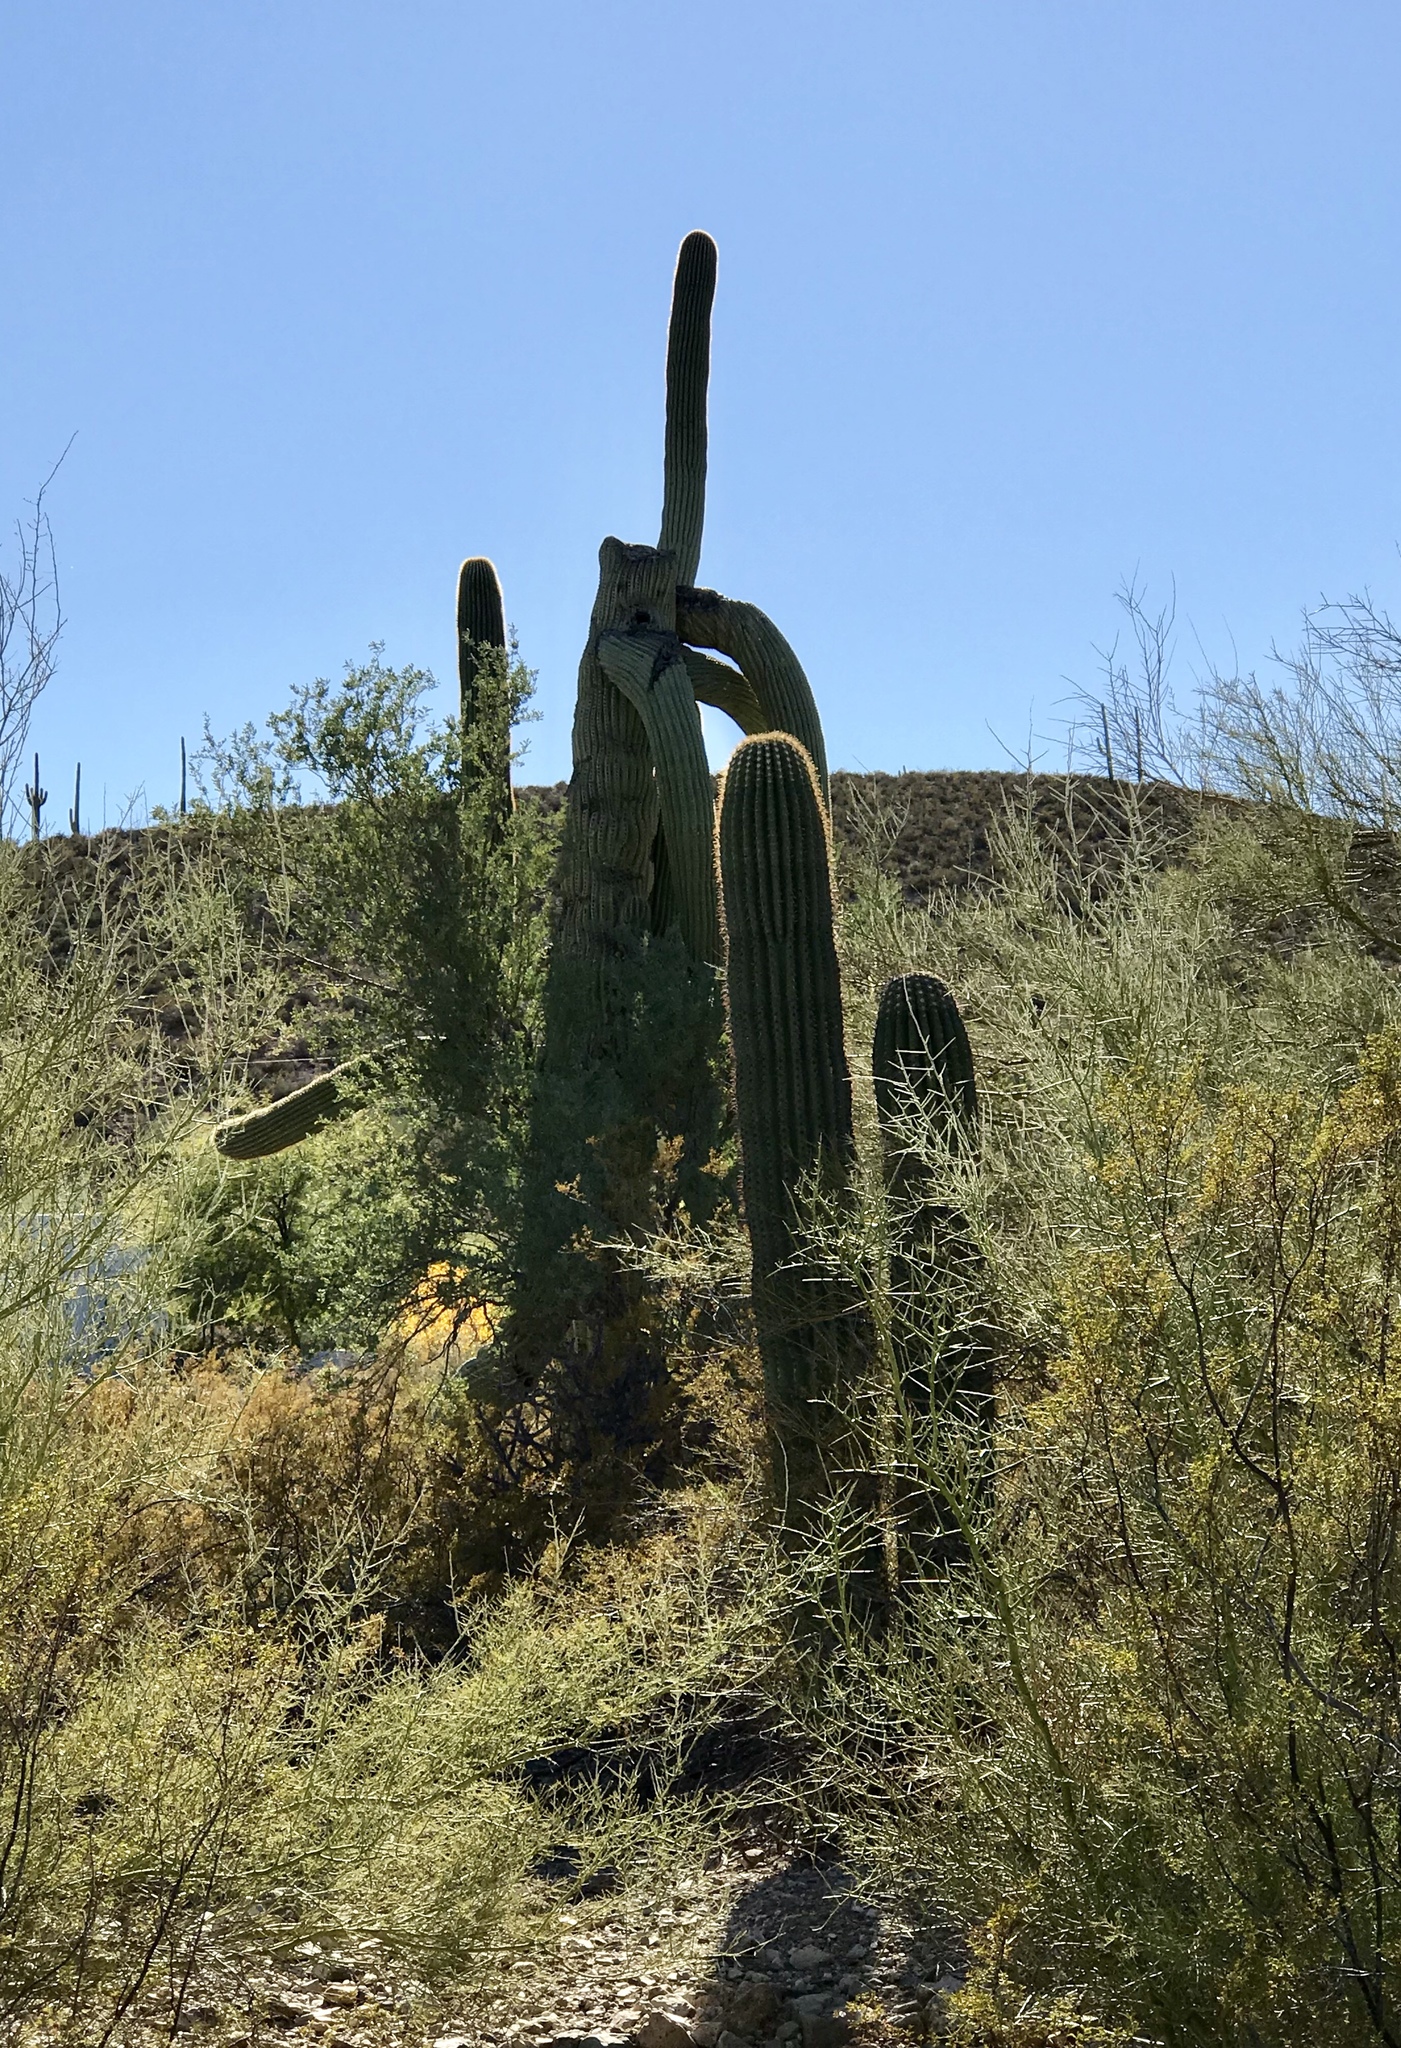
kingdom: Plantae
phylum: Tracheophyta
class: Magnoliopsida
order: Caryophyllales
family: Cactaceae
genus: Carnegiea
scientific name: Carnegiea gigantea
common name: Saguaro
